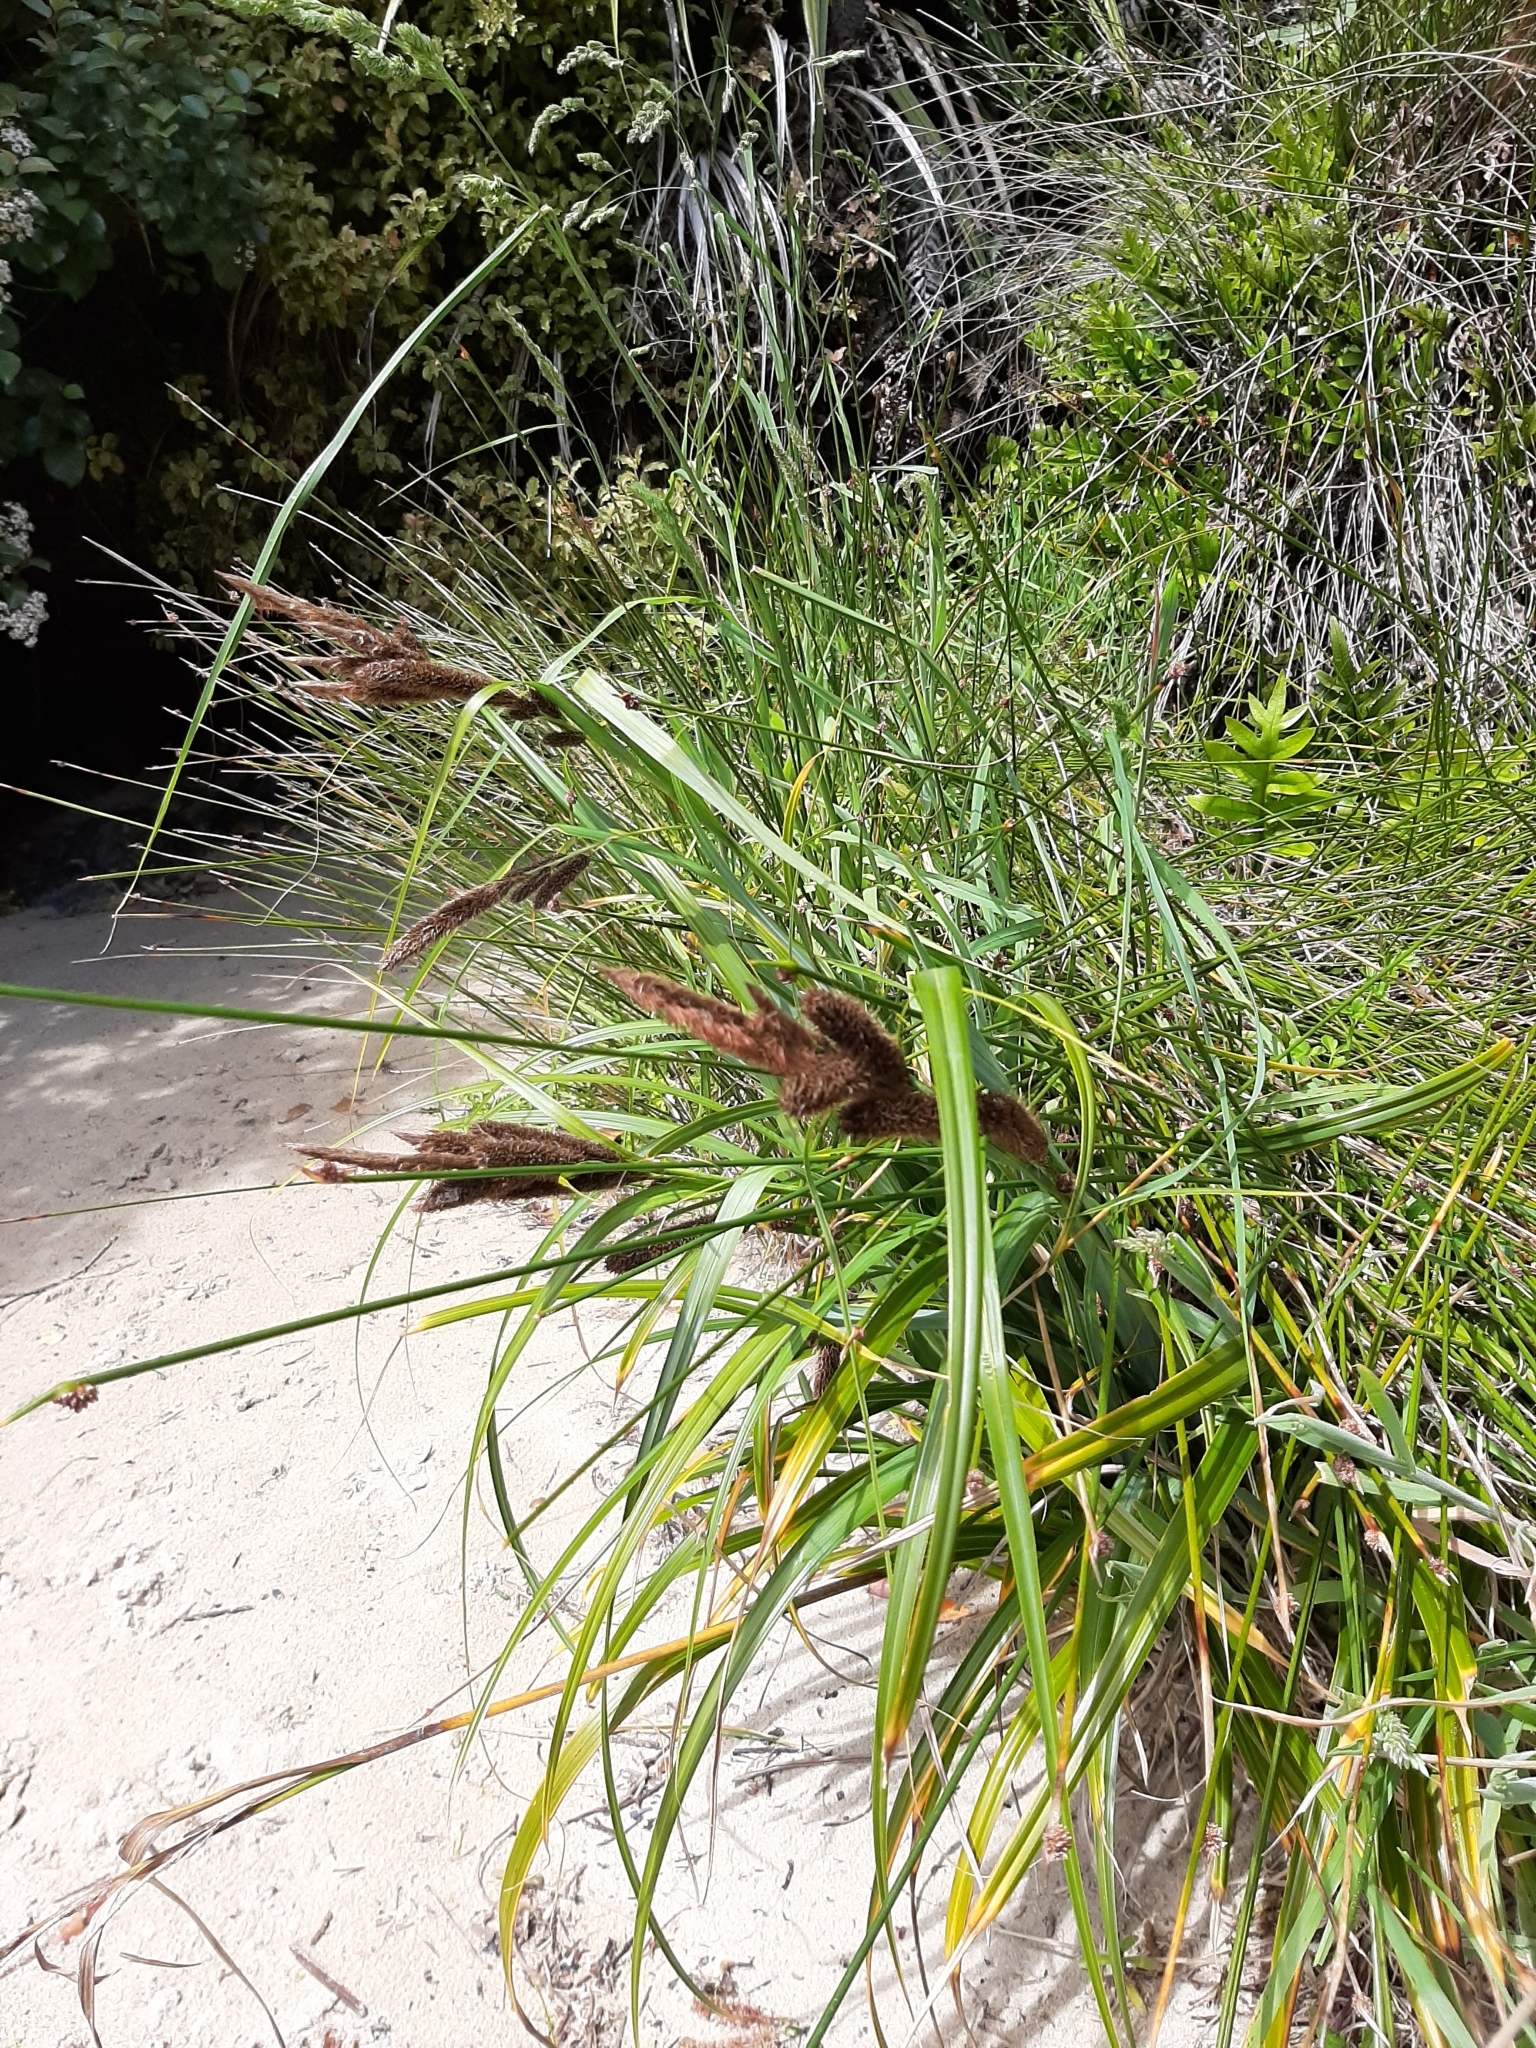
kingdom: Plantae
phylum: Tracheophyta
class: Liliopsida
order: Poales
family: Cyperaceae
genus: Carex
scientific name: Carex trifida
